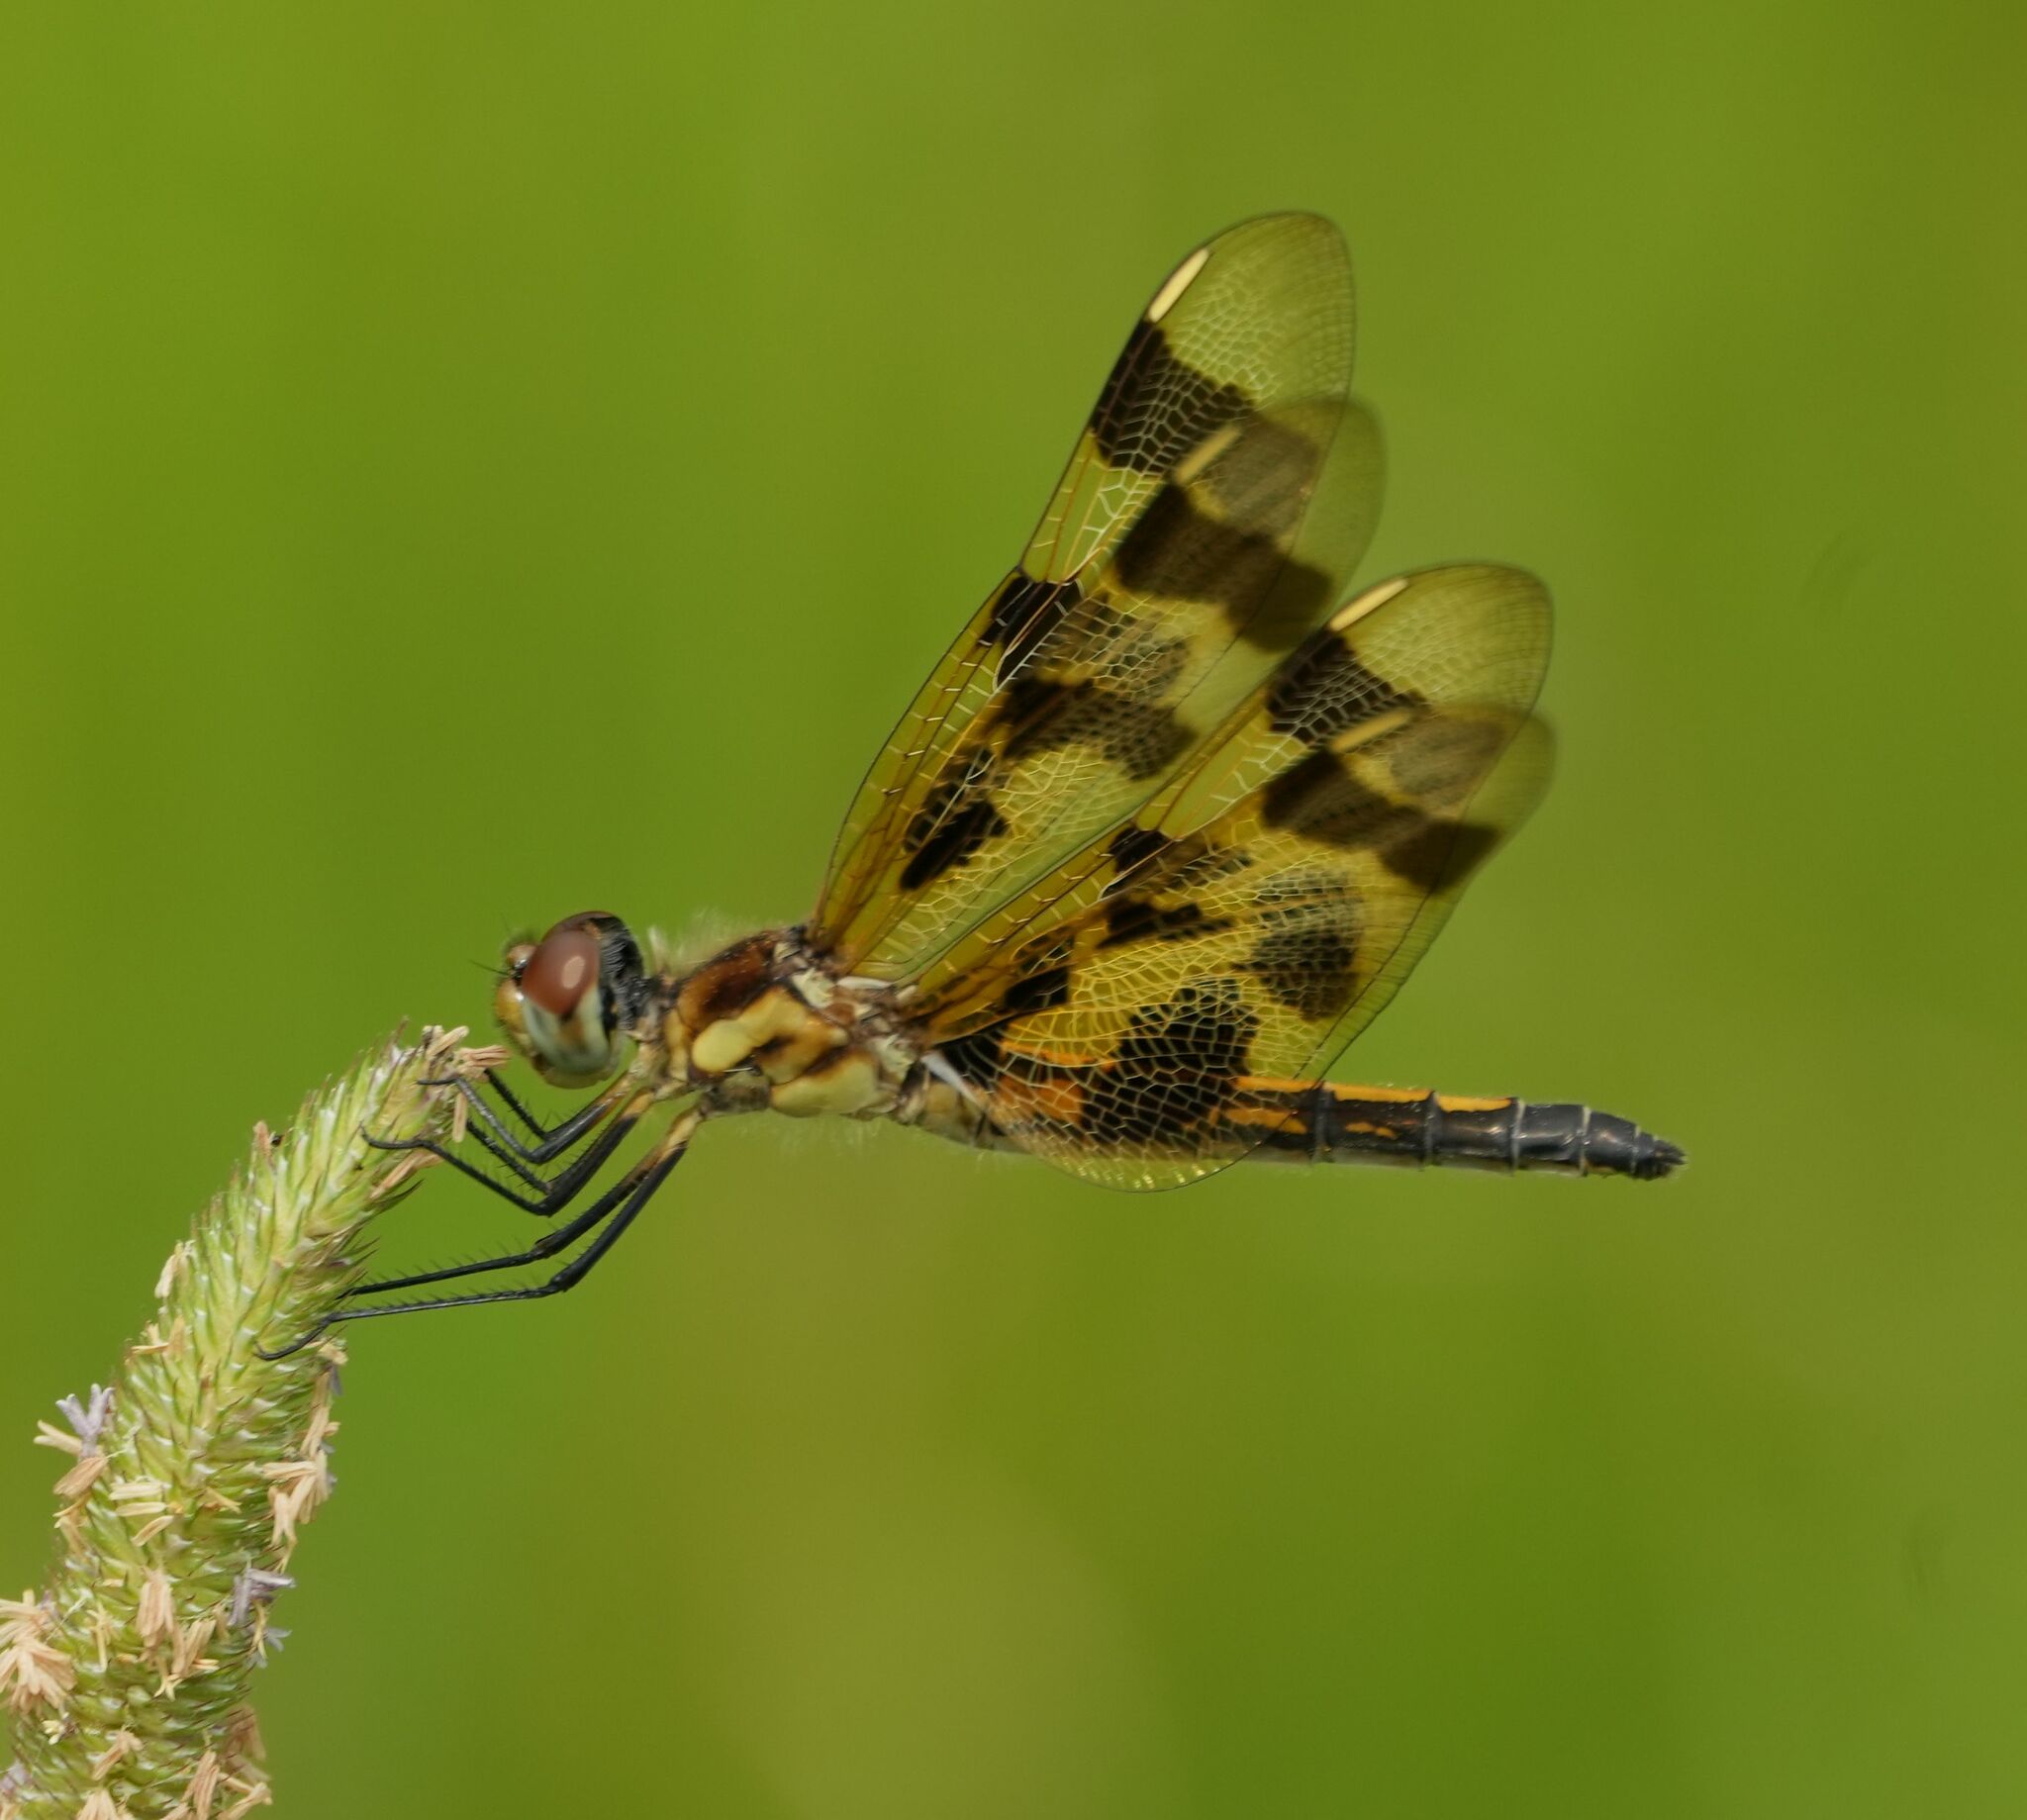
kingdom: Animalia
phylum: Arthropoda
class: Insecta
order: Odonata
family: Libellulidae
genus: Celithemis
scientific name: Celithemis eponina
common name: Halloween pennant
